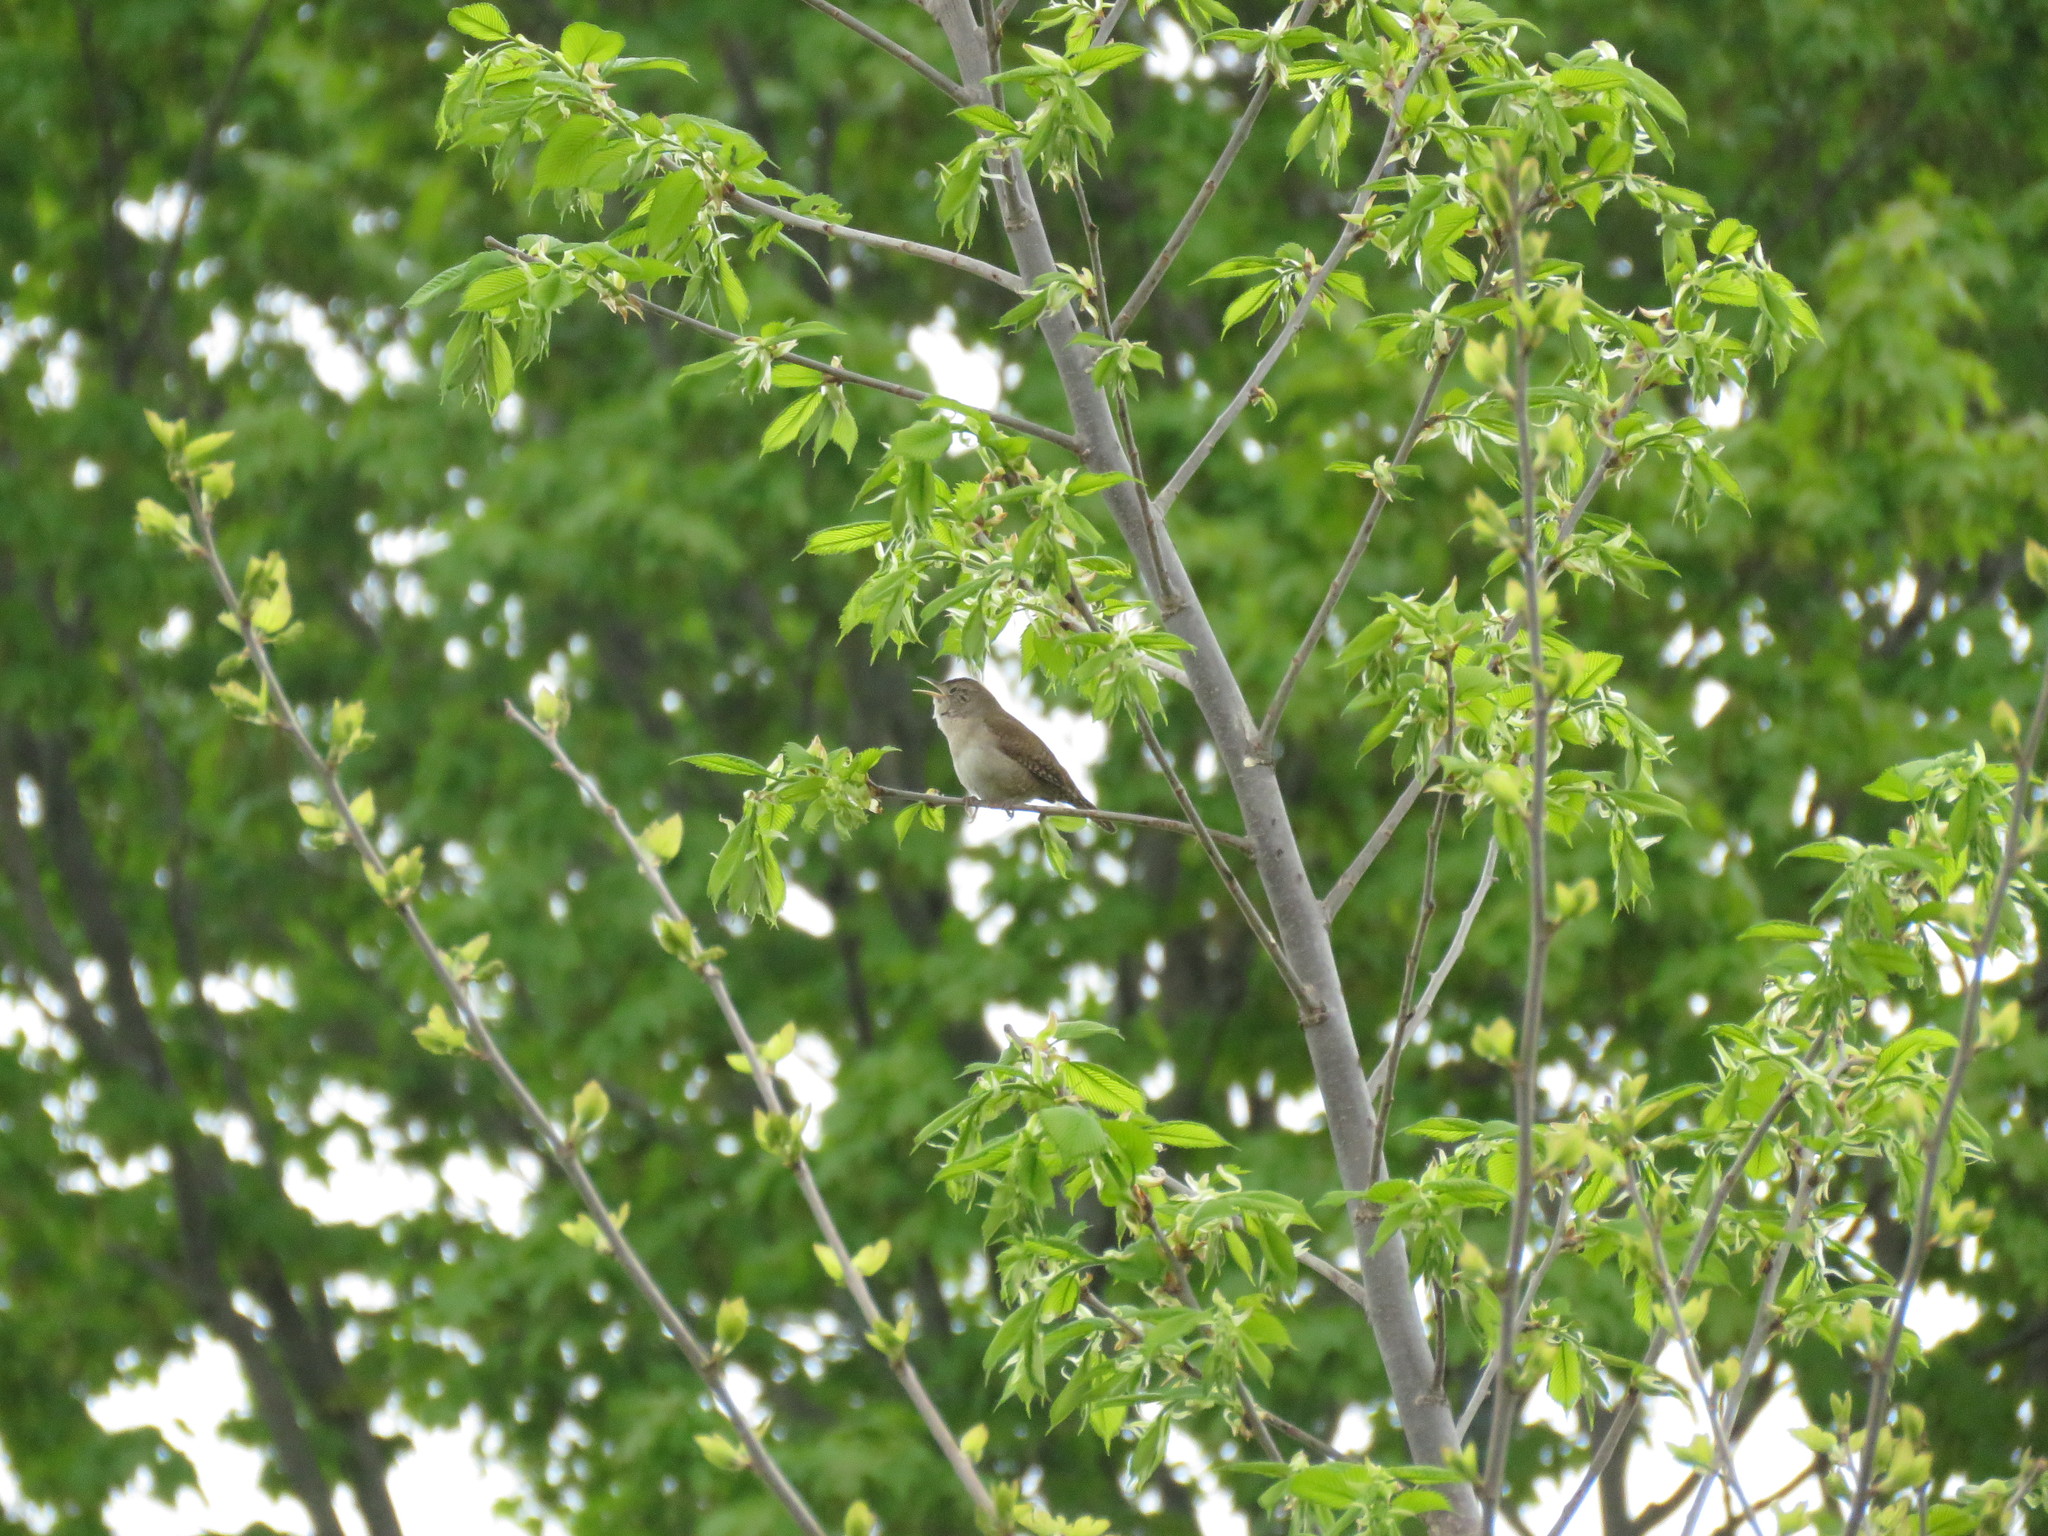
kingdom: Animalia
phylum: Chordata
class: Aves
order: Passeriformes
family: Troglodytidae
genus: Troglodytes
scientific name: Troglodytes aedon
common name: House wren
